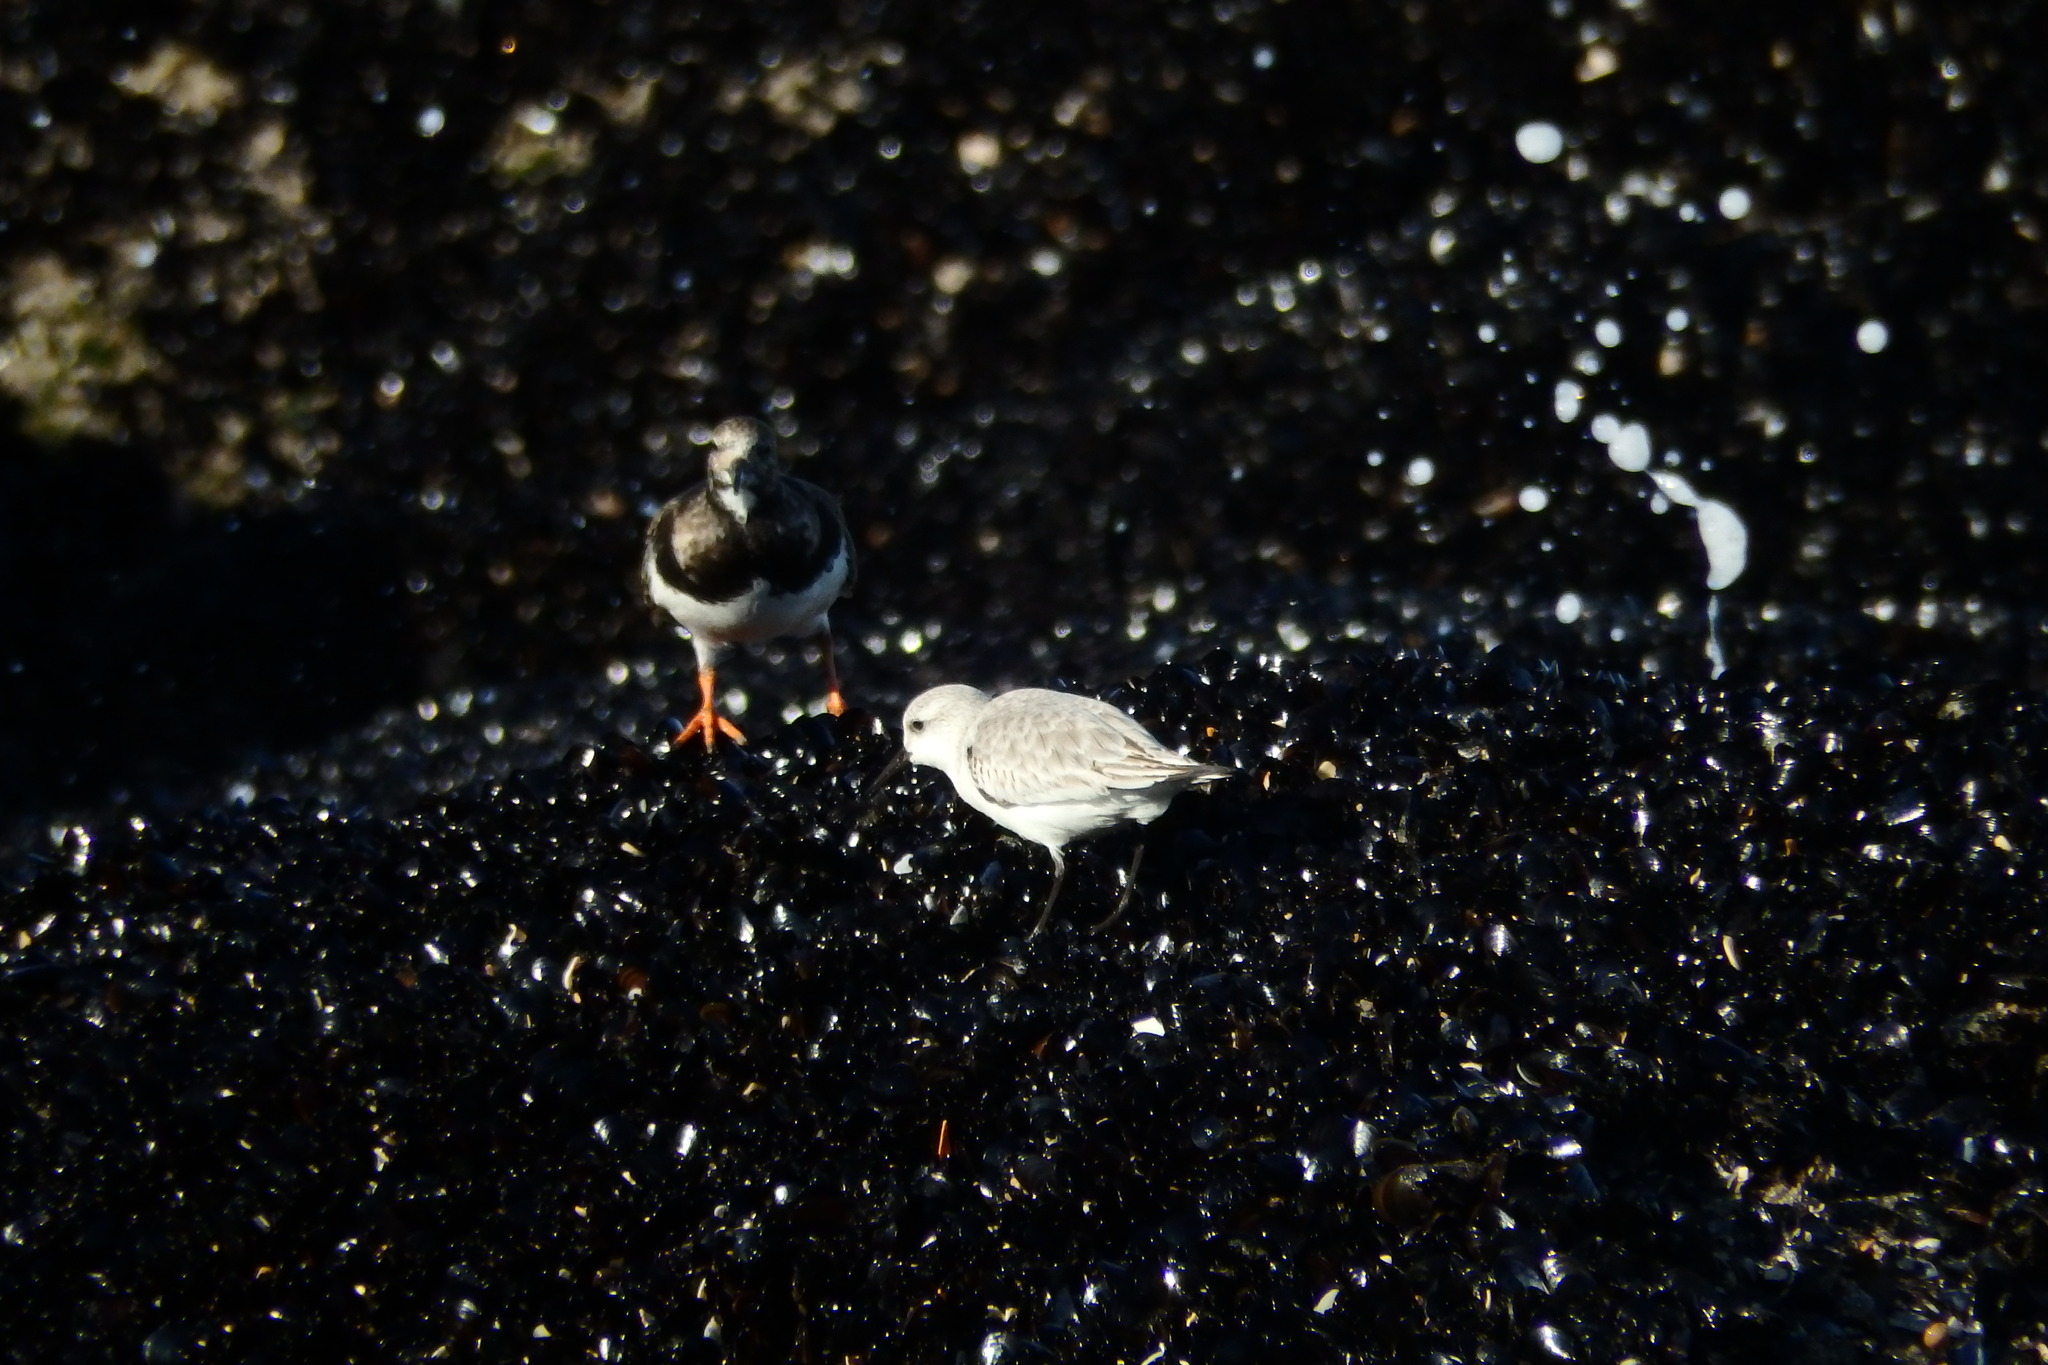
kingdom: Animalia
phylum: Chordata
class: Aves
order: Charadriiformes
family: Scolopacidae
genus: Calidris
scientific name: Calidris alba
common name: Sanderling
